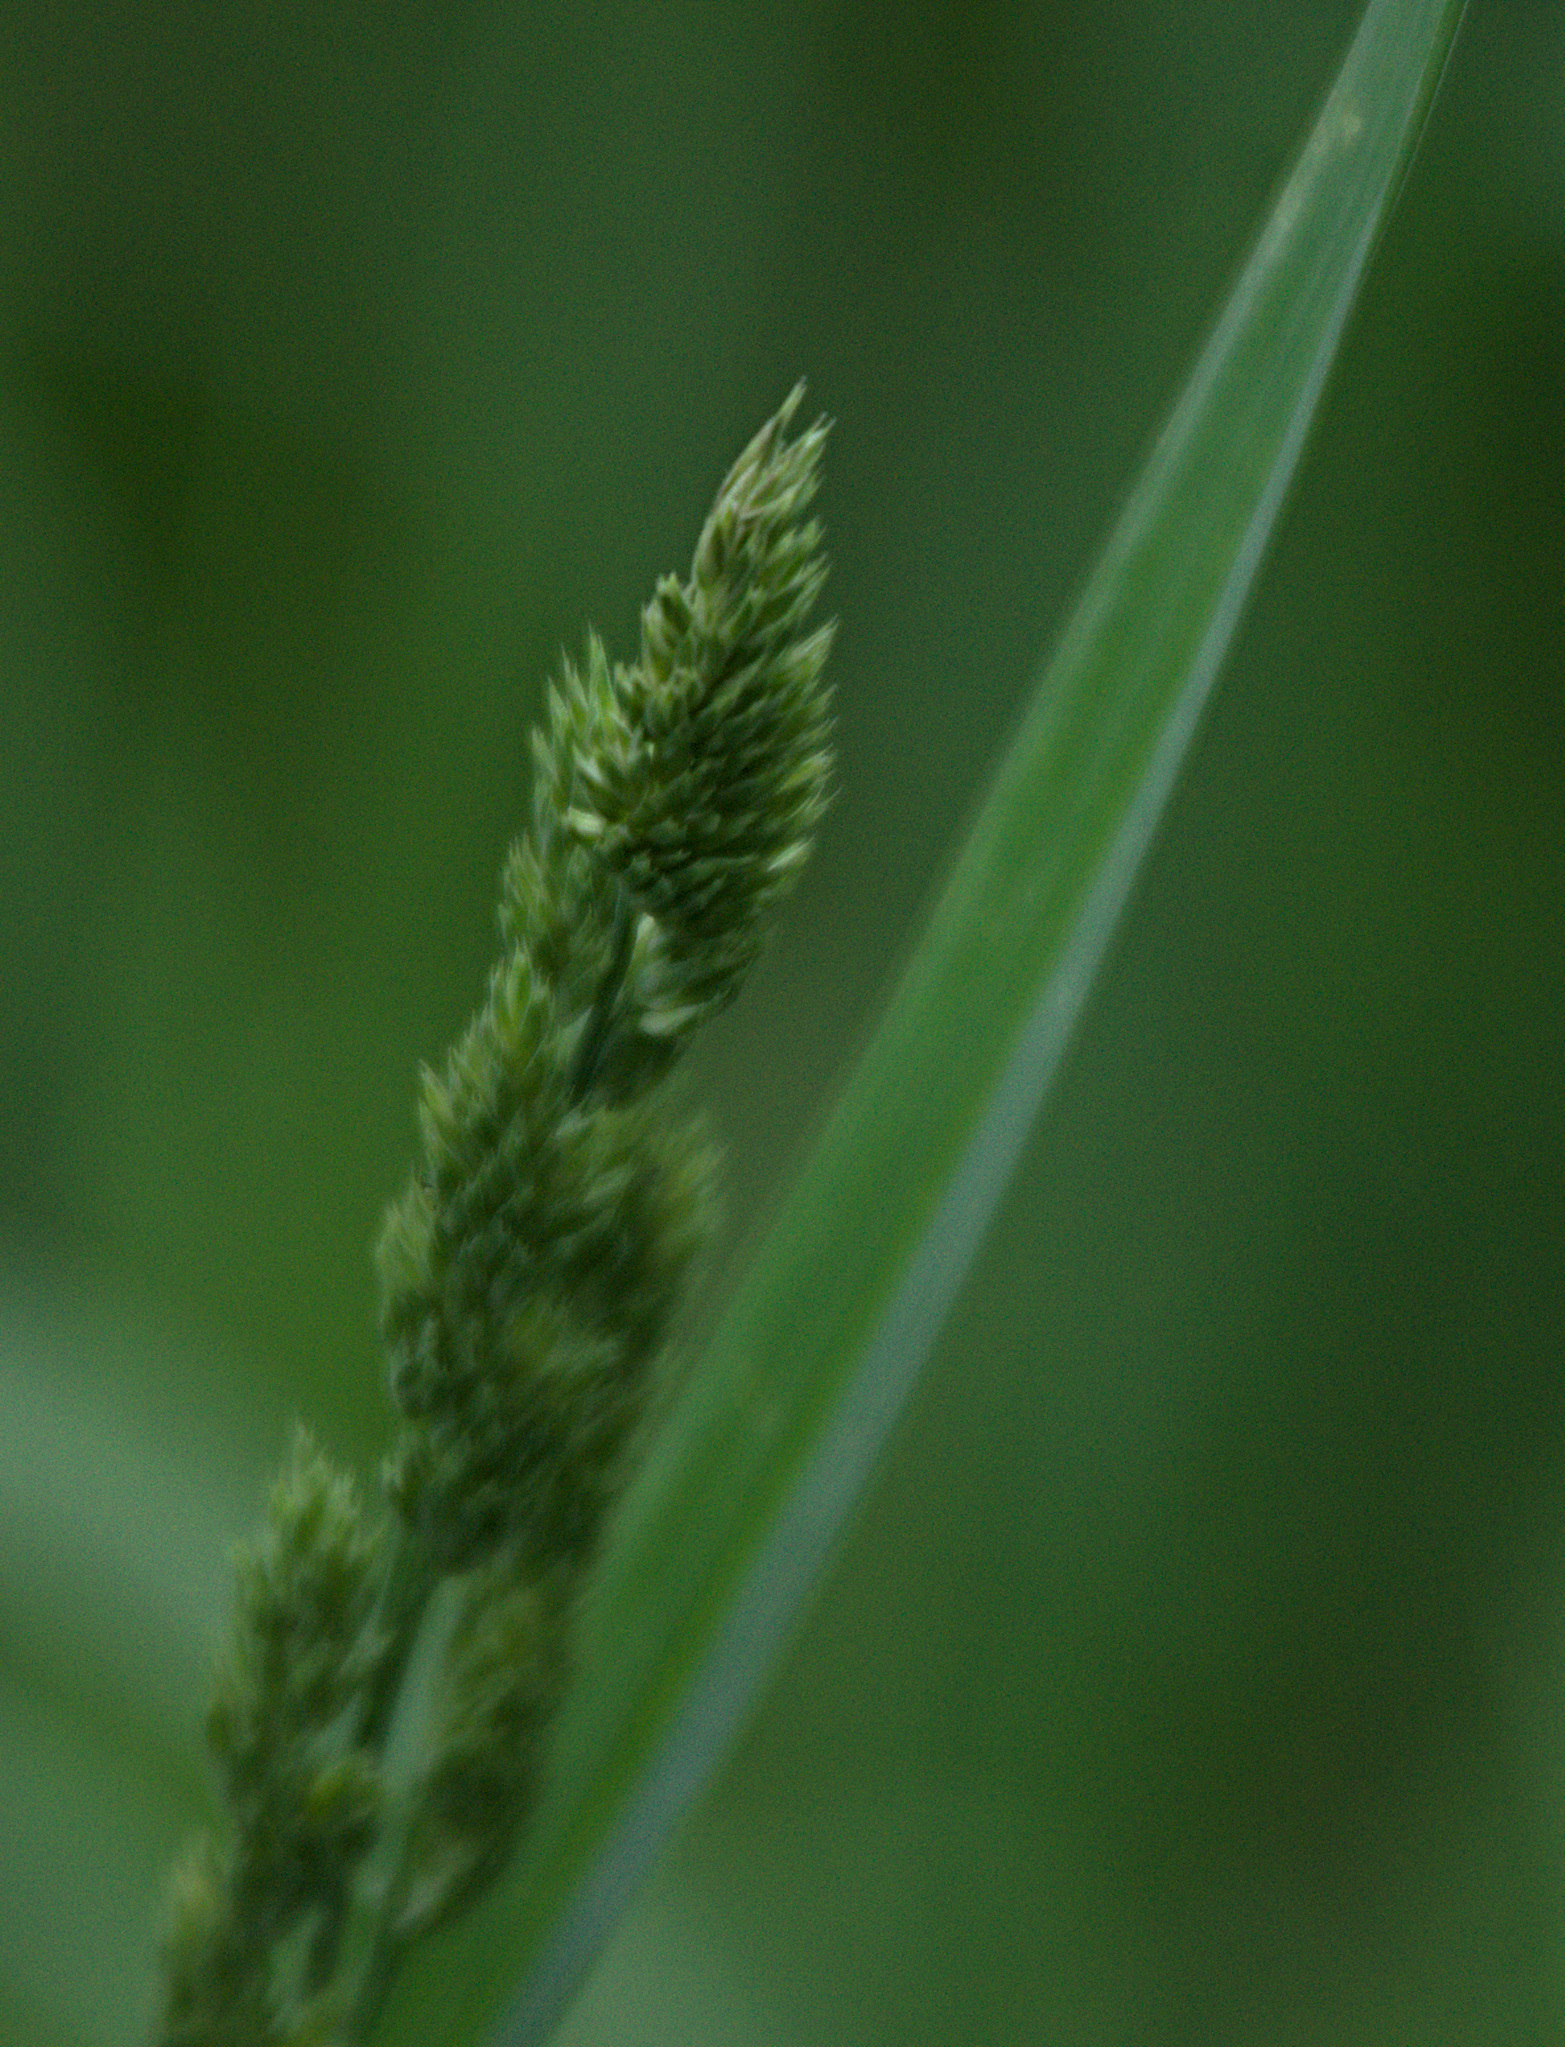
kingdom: Plantae
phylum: Tracheophyta
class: Liliopsida
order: Poales
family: Poaceae
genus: Dactylis
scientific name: Dactylis glomerata
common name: Orchardgrass
